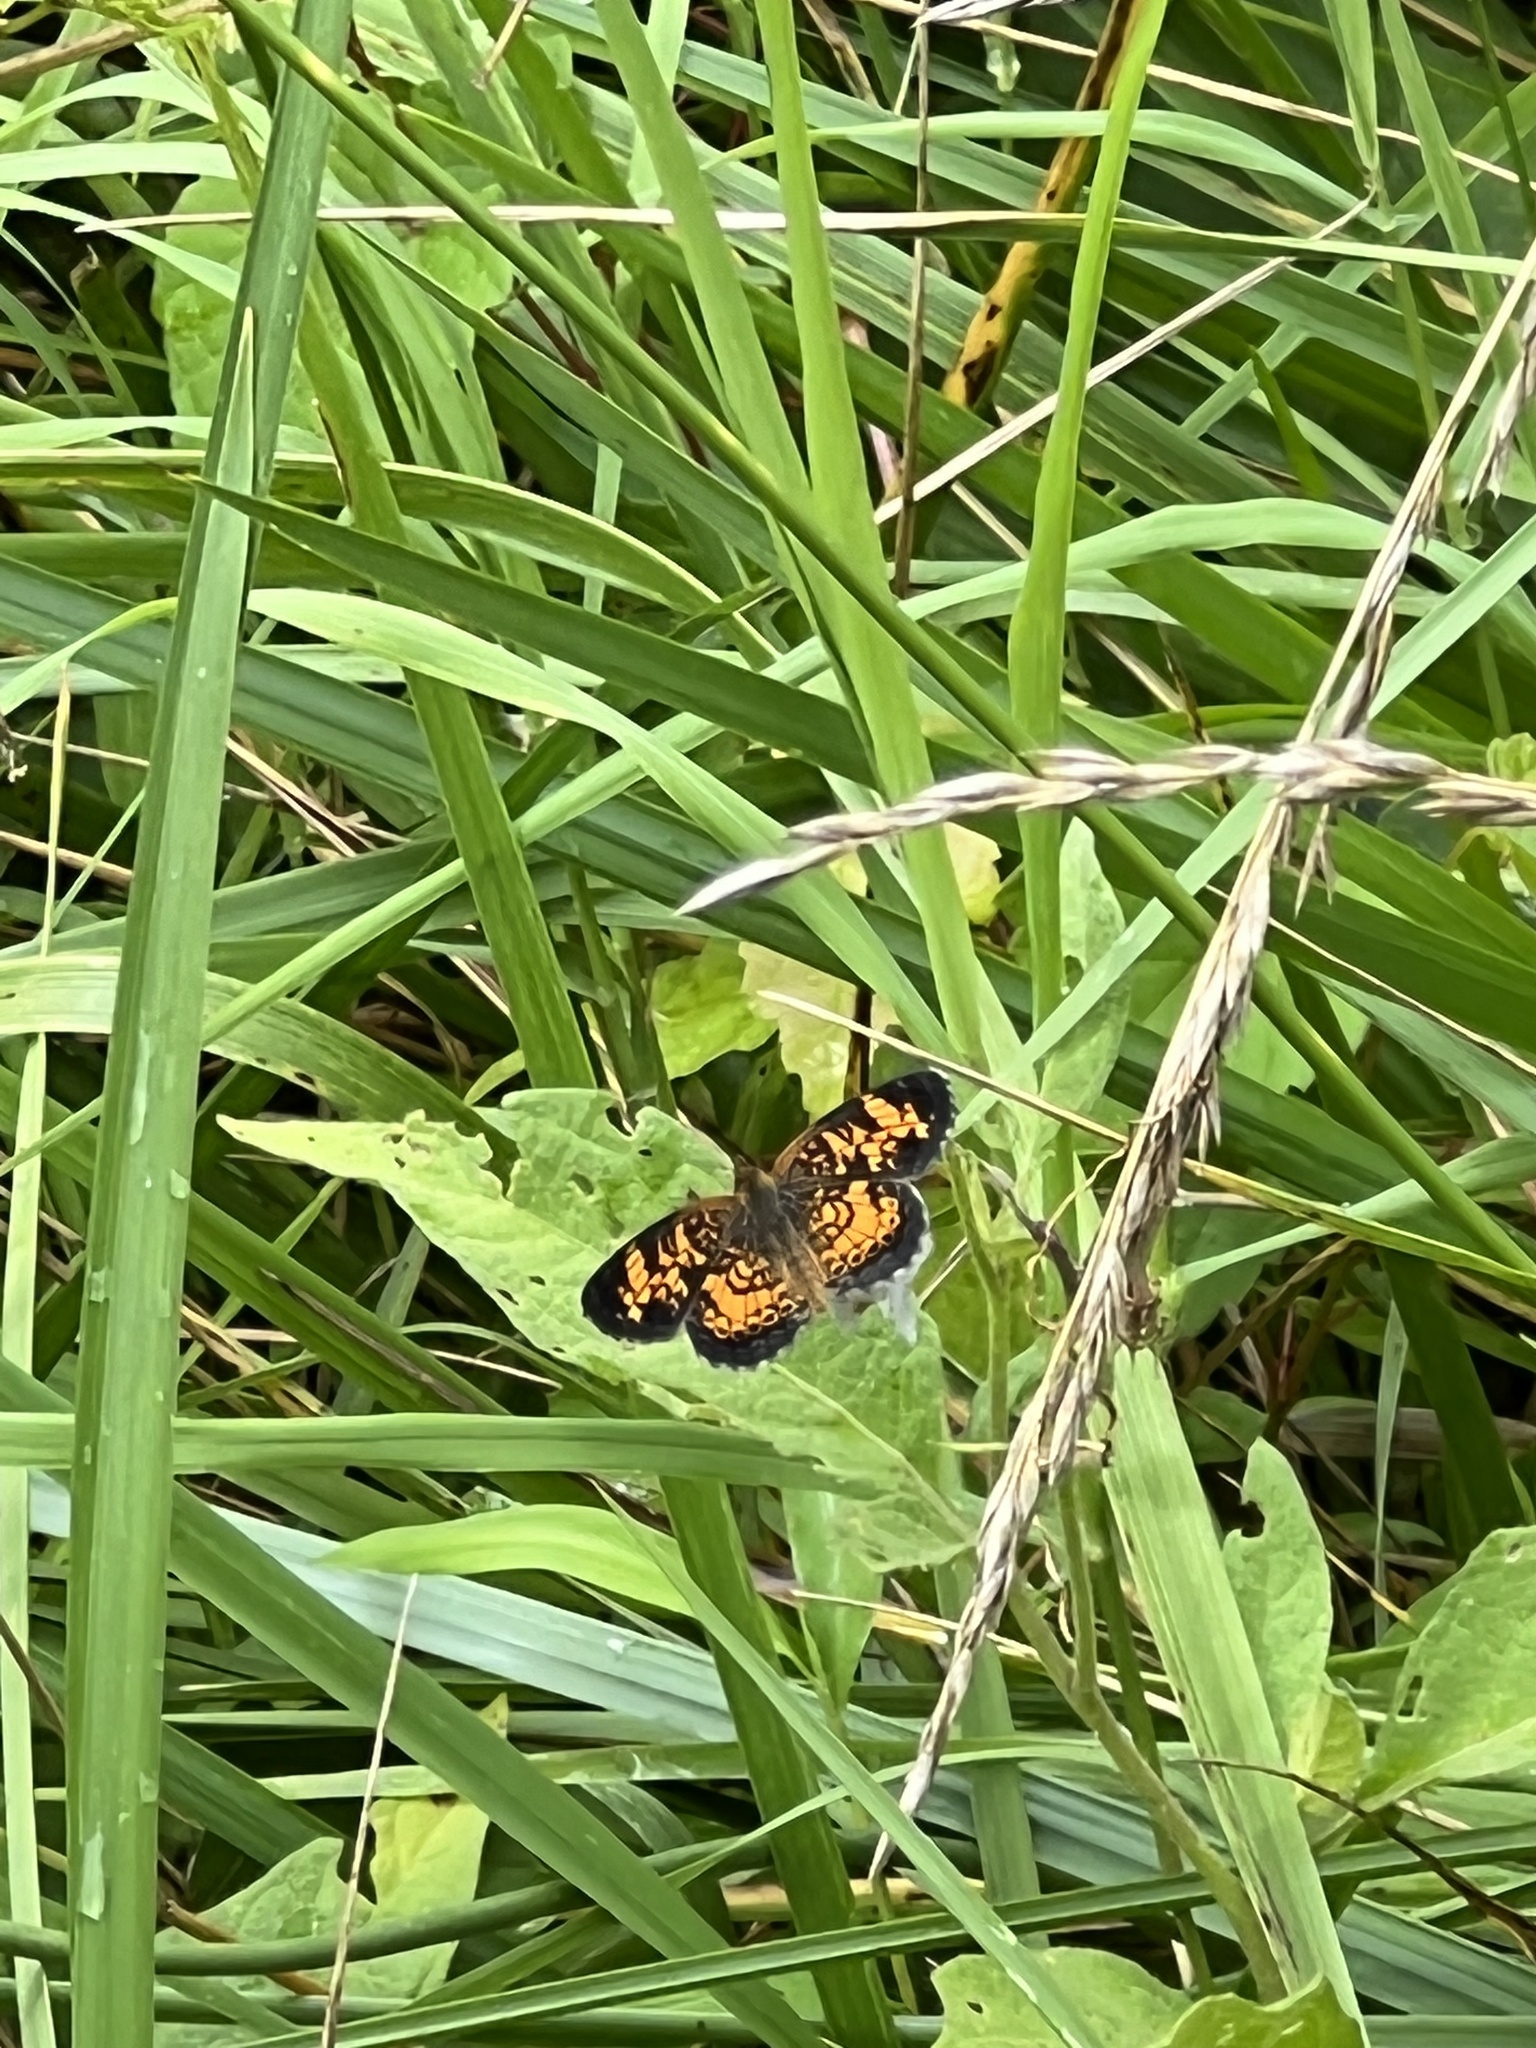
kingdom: Animalia
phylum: Arthropoda
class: Insecta
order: Lepidoptera
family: Nymphalidae
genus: Phyciodes
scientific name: Phyciodes tharos
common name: Pearl crescent
